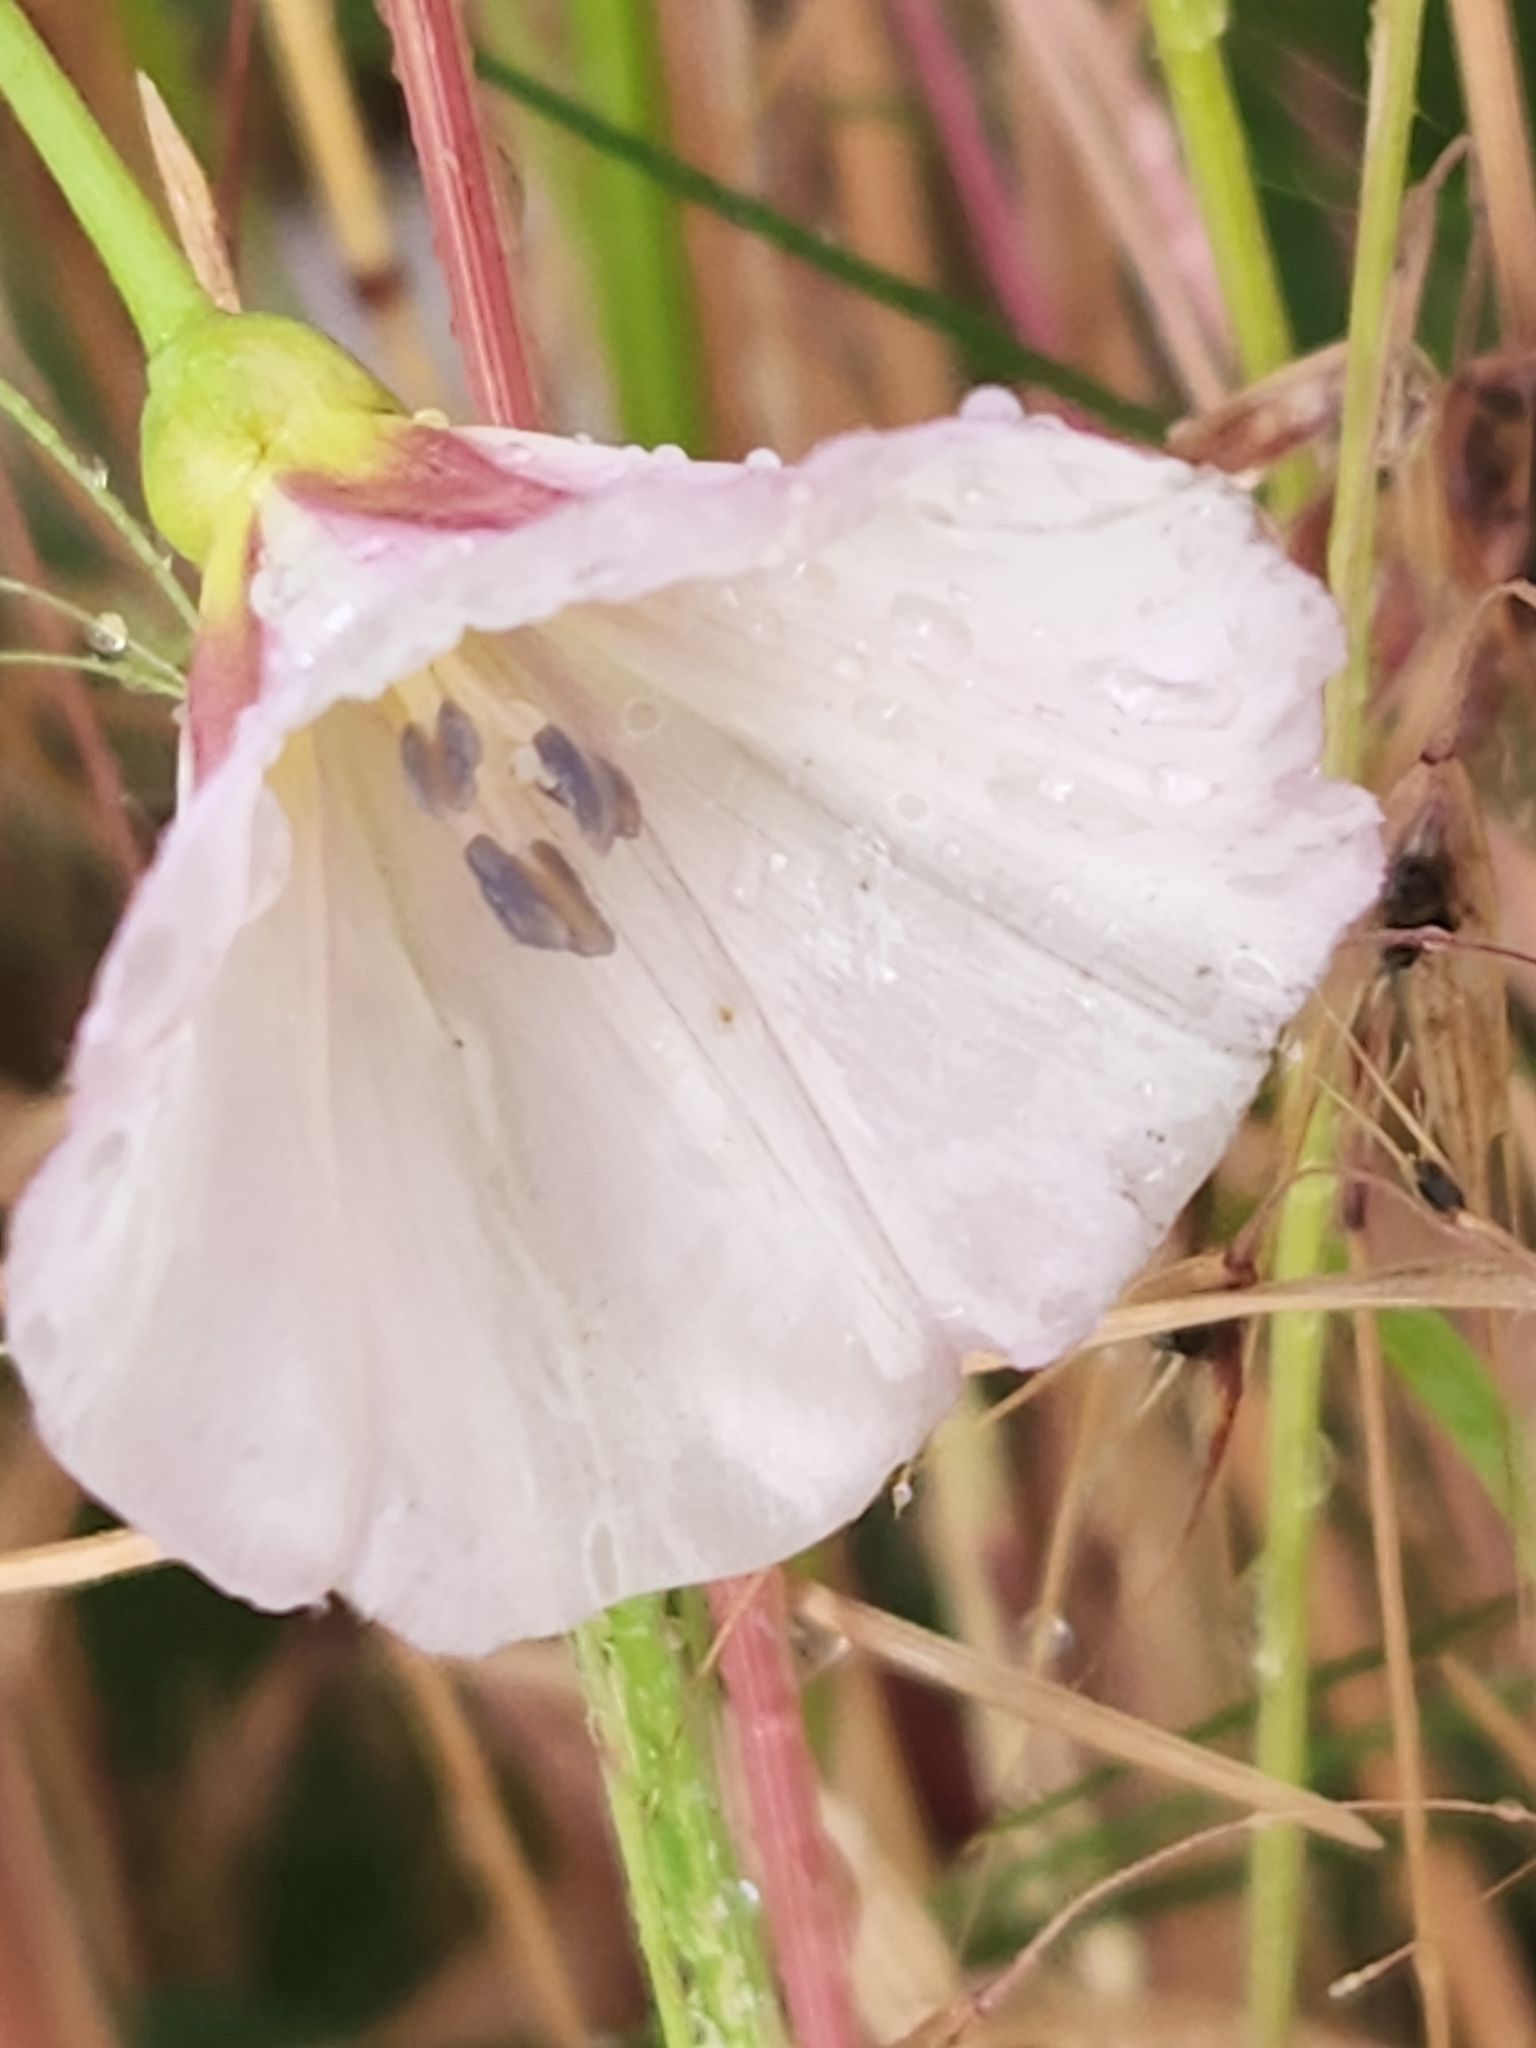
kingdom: Plantae
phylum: Tracheophyta
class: Magnoliopsida
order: Solanales
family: Convolvulaceae
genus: Convolvulus
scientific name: Convolvulus arvensis
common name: Field bindweed
